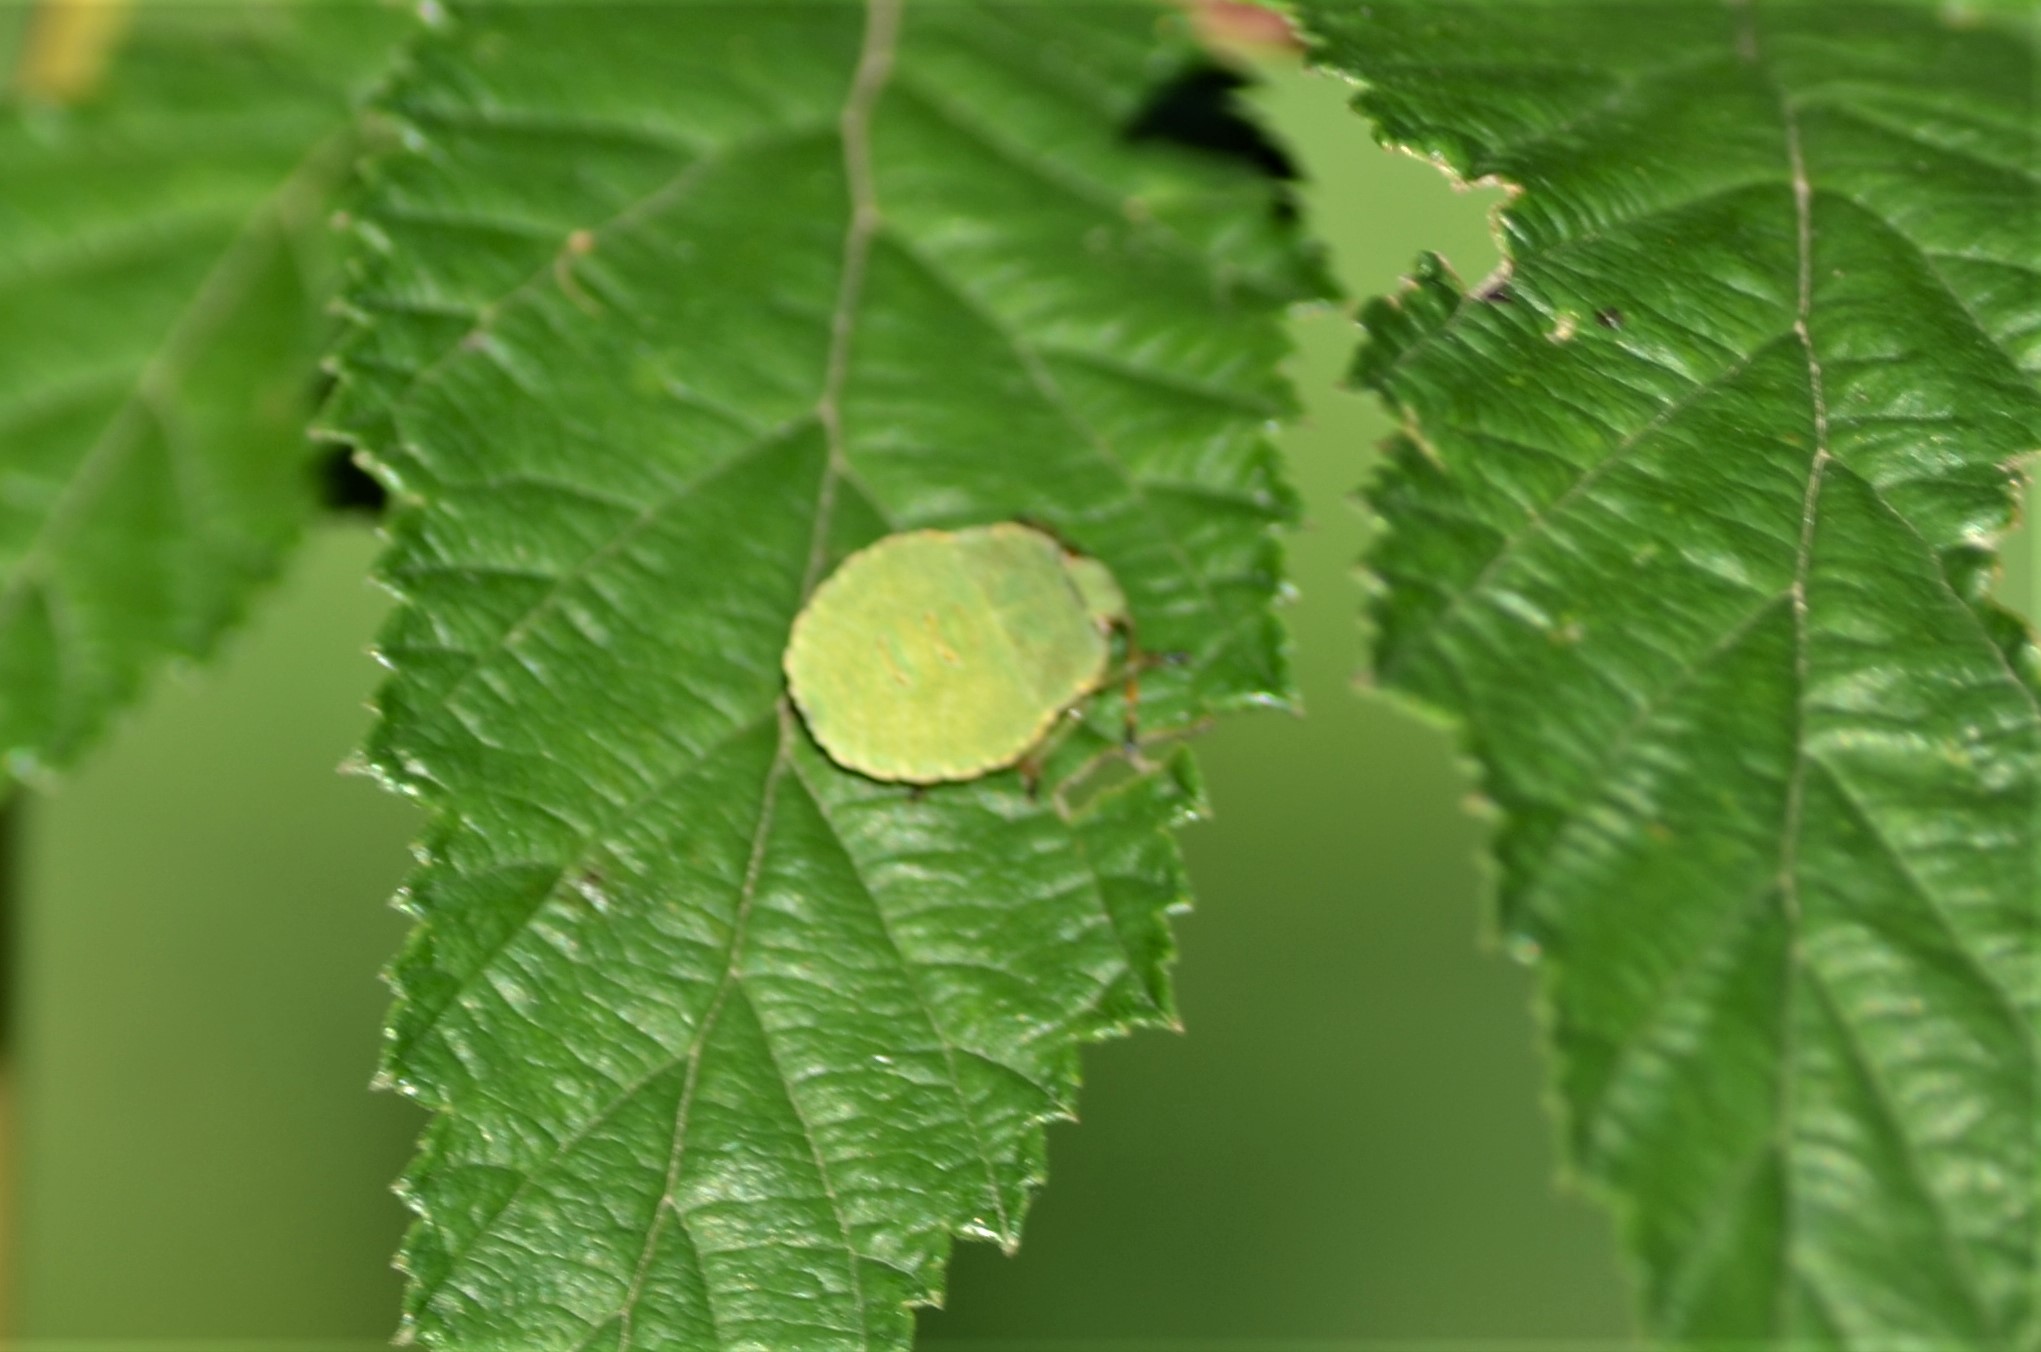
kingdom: Animalia
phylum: Arthropoda
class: Insecta
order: Hemiptera
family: Pentatomidae
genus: Palomena
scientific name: Palomena prasina
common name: Green shieldbug
